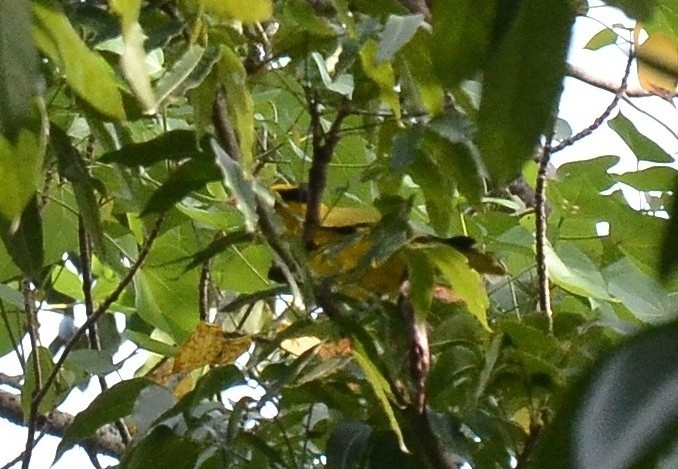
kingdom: Animalia
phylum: Chordata
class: Aves
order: Passeriformes
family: Oriolidae
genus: Oriolus
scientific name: Oriolus chinensis
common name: Black-naped oriole
